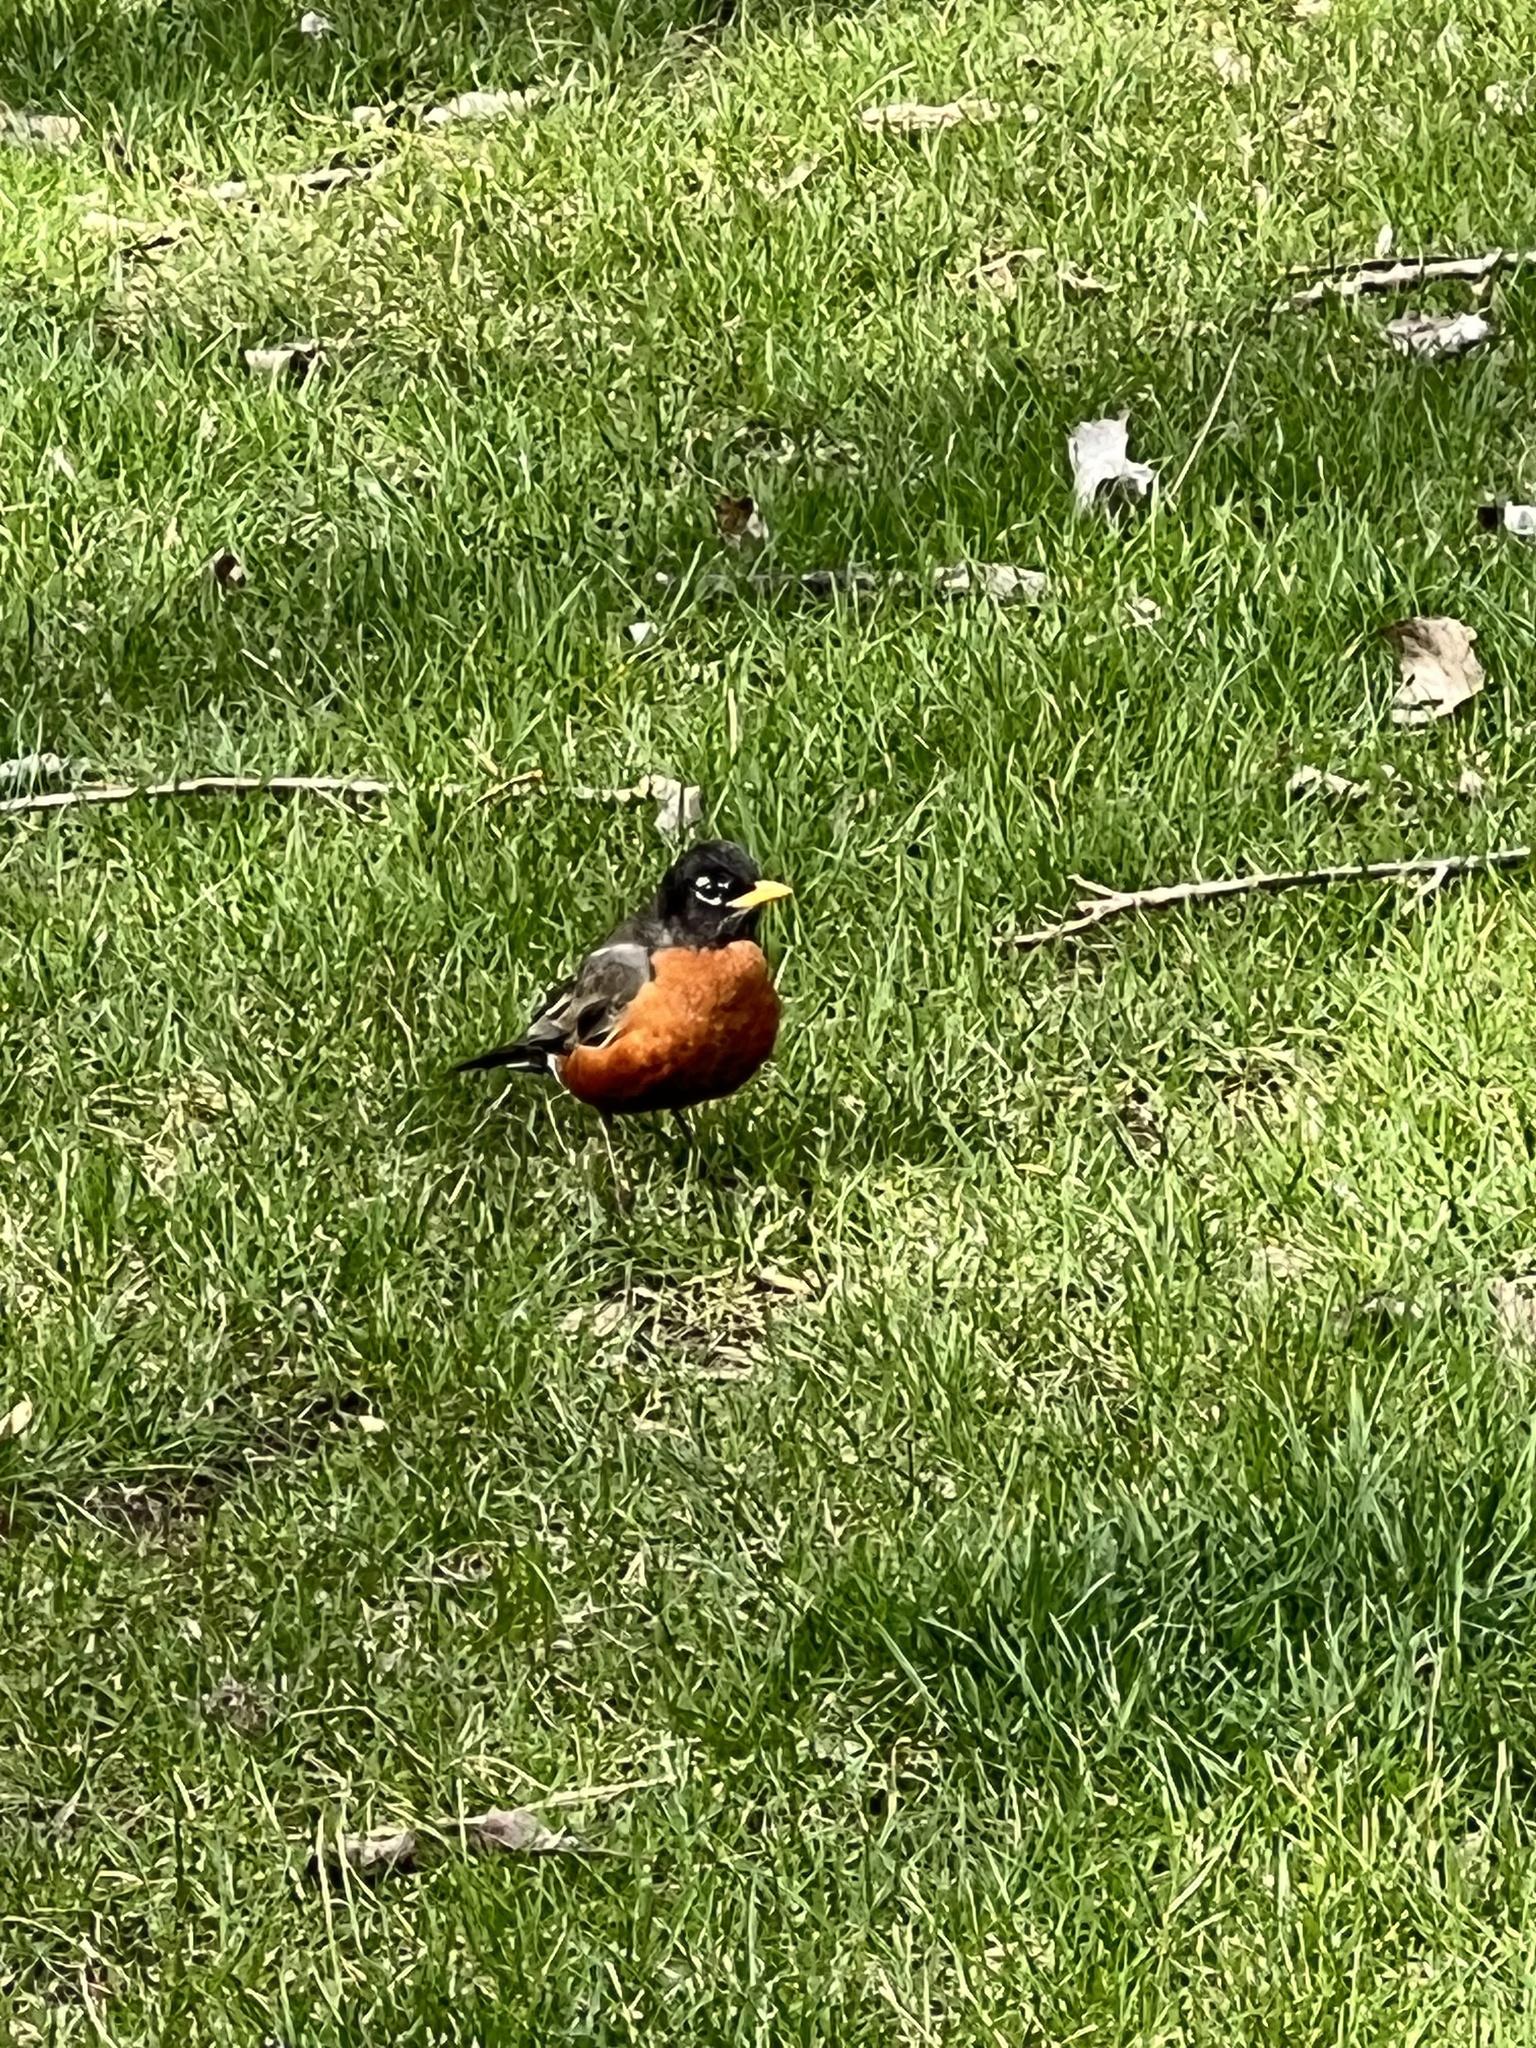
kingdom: Animalia
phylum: Chordata
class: Aves
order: Passeriformes
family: Turdidae
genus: Turdus
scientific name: Turdus migratorius
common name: American robin
